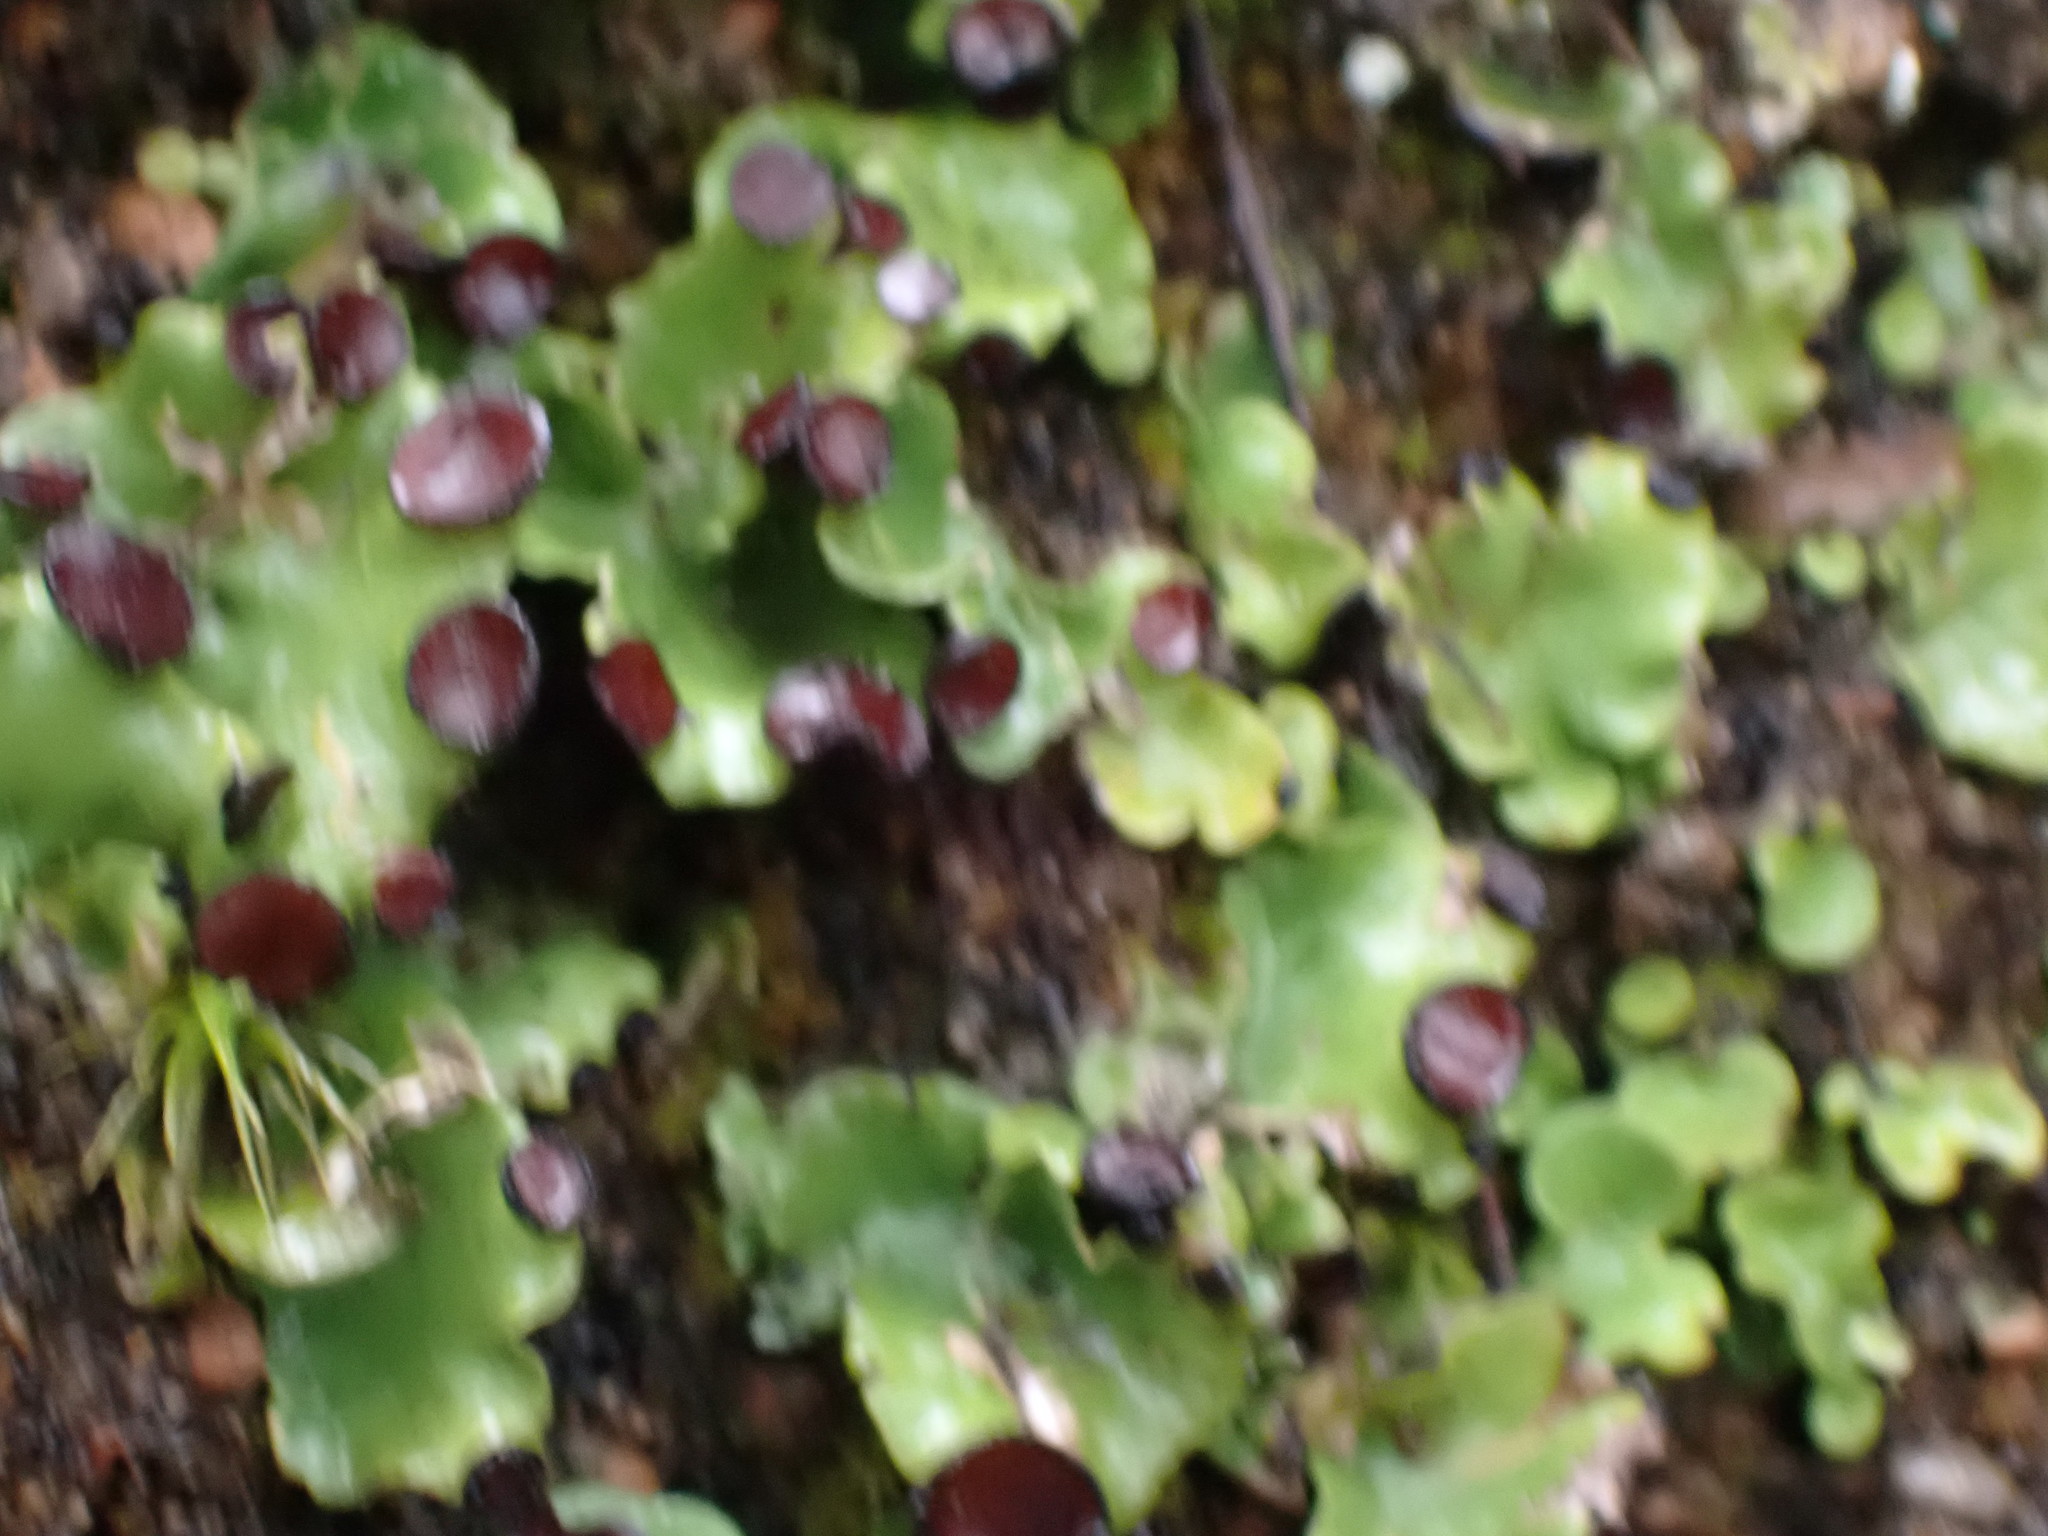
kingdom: Fungi
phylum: Ascomycota
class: Lecanoromycetes
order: Peltigerales
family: Peltigeraceae
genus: Peltigera
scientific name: Peltigera venosa
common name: Pixie gowns lichen
